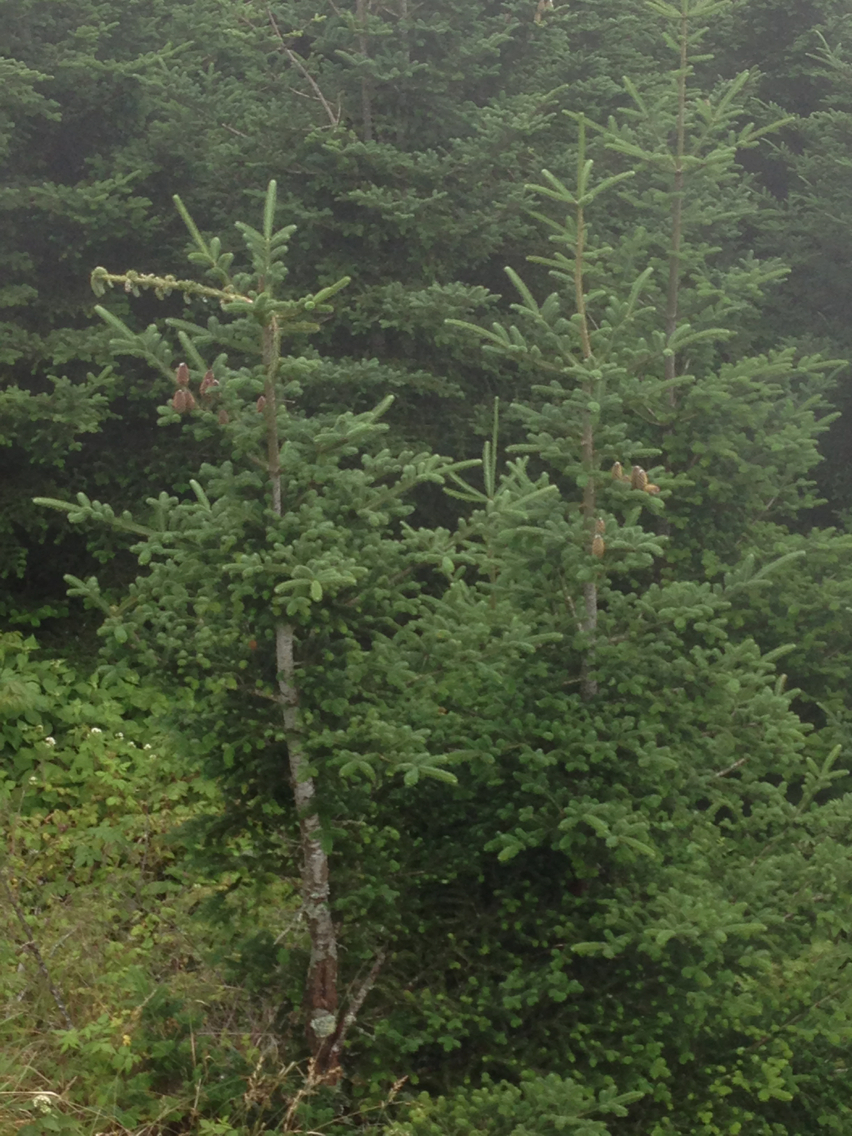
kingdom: Plantae
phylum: Tracheophyta
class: Pinopsida
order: Pinales
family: Pinaceae
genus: Abies
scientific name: Abies fraseri
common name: Fraser fir
